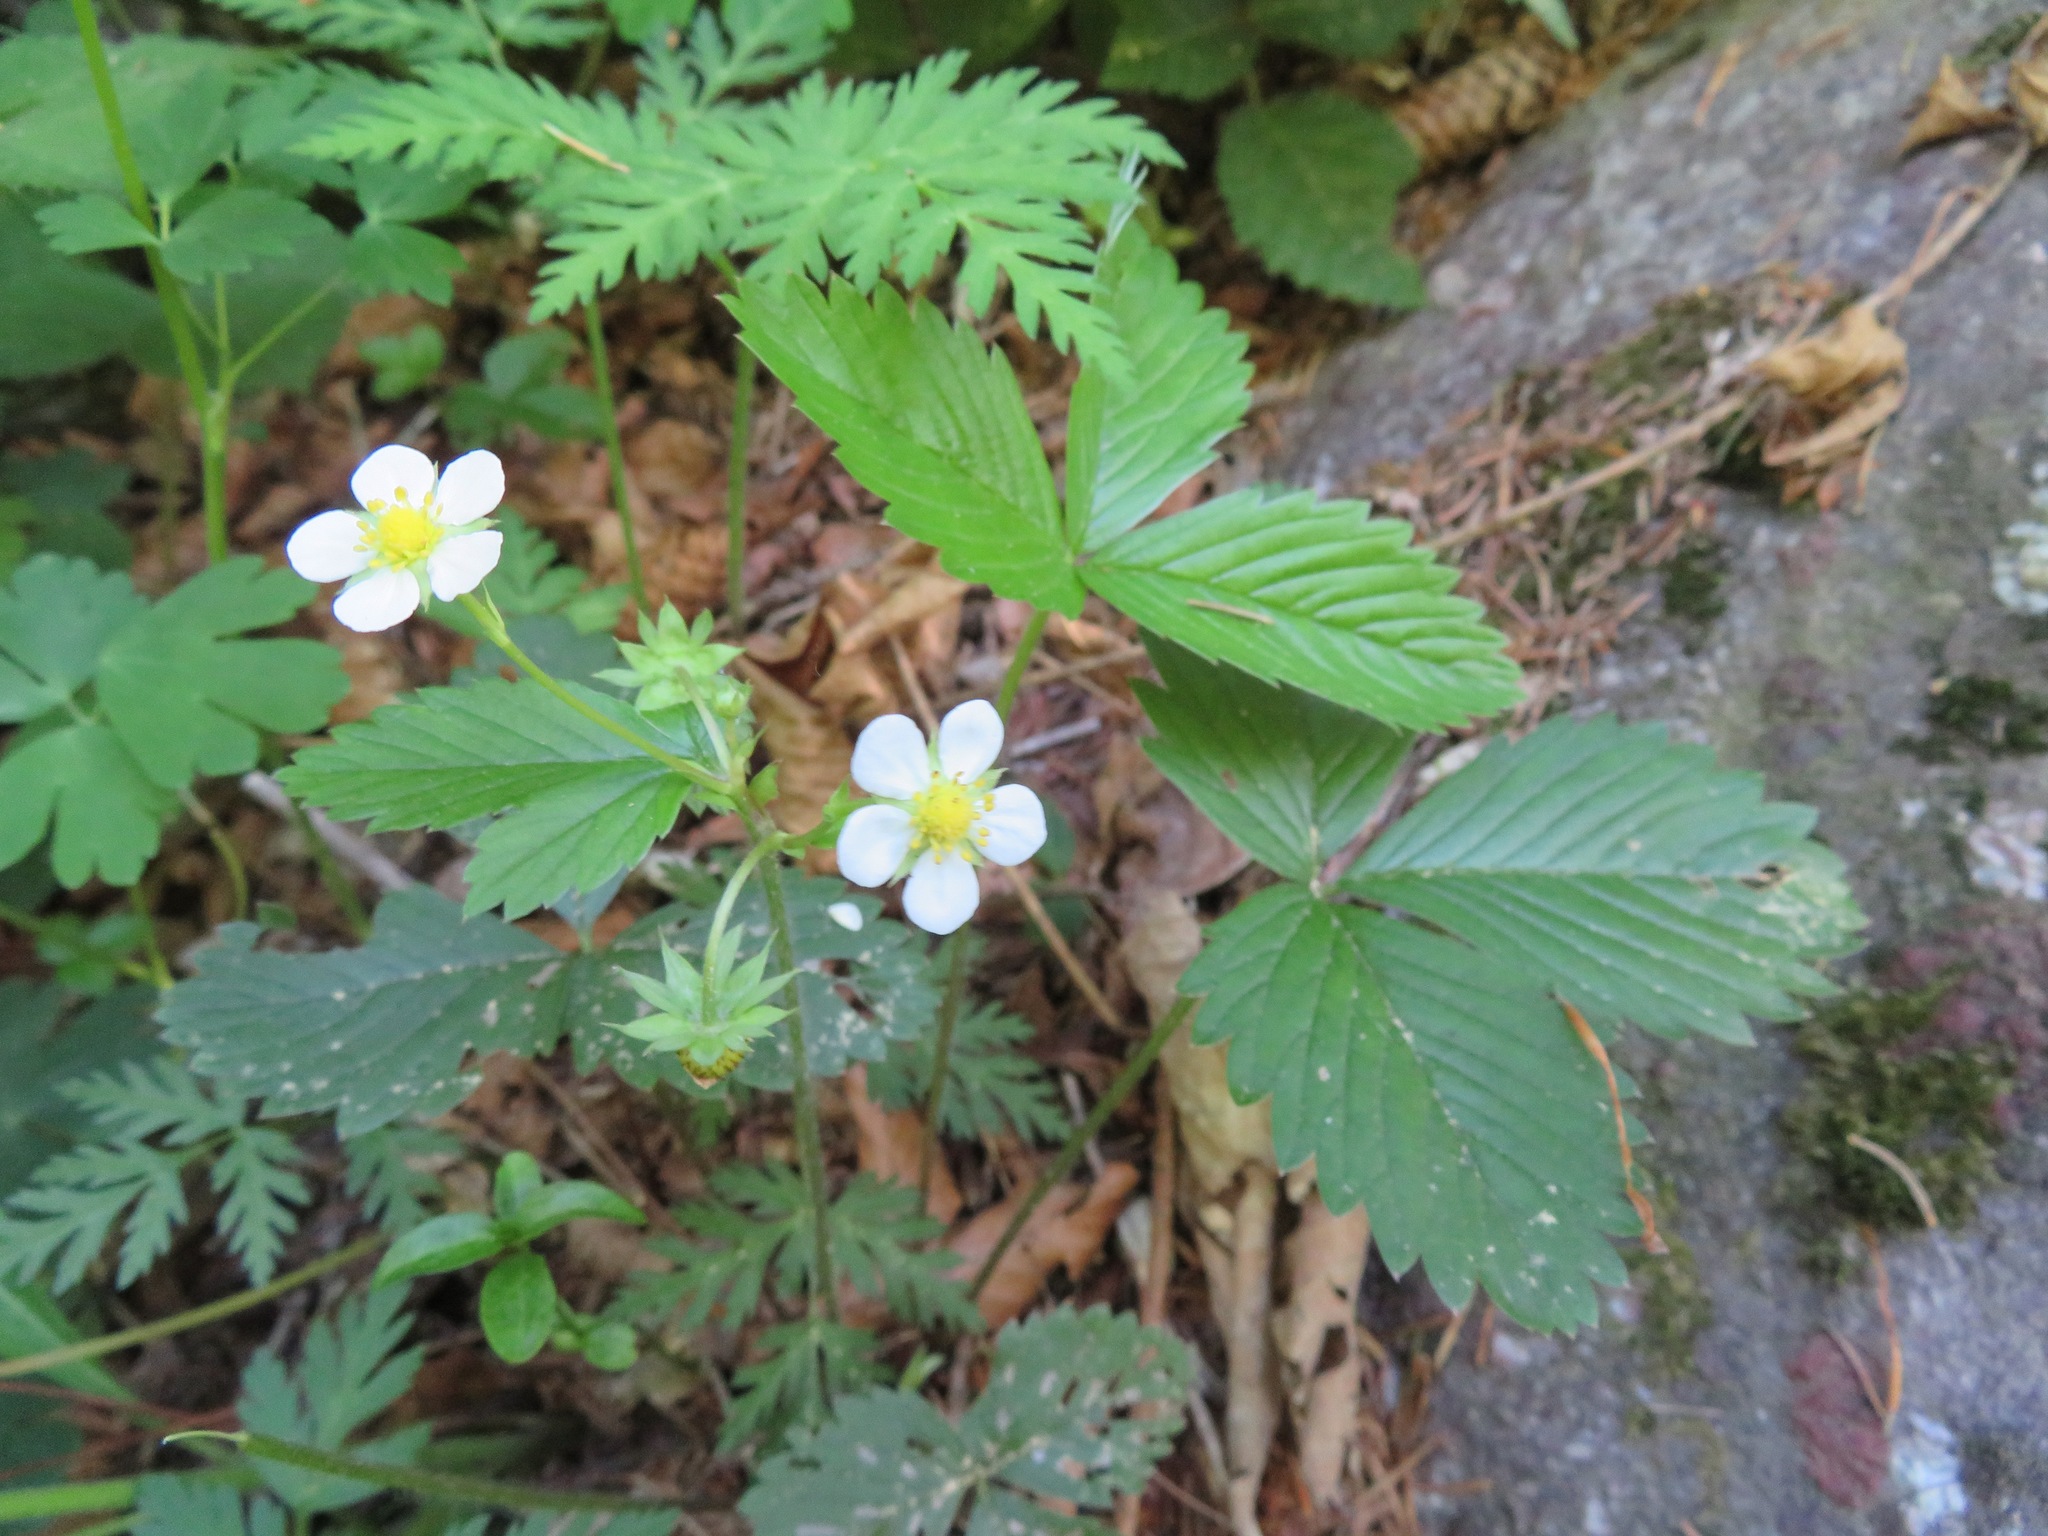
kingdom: Plantae
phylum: Tracheophyta
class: Magnoliopsida
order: Rosales
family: Rosaceae
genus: Fragaria
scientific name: Fragaria vesca
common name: Wild strawberry
